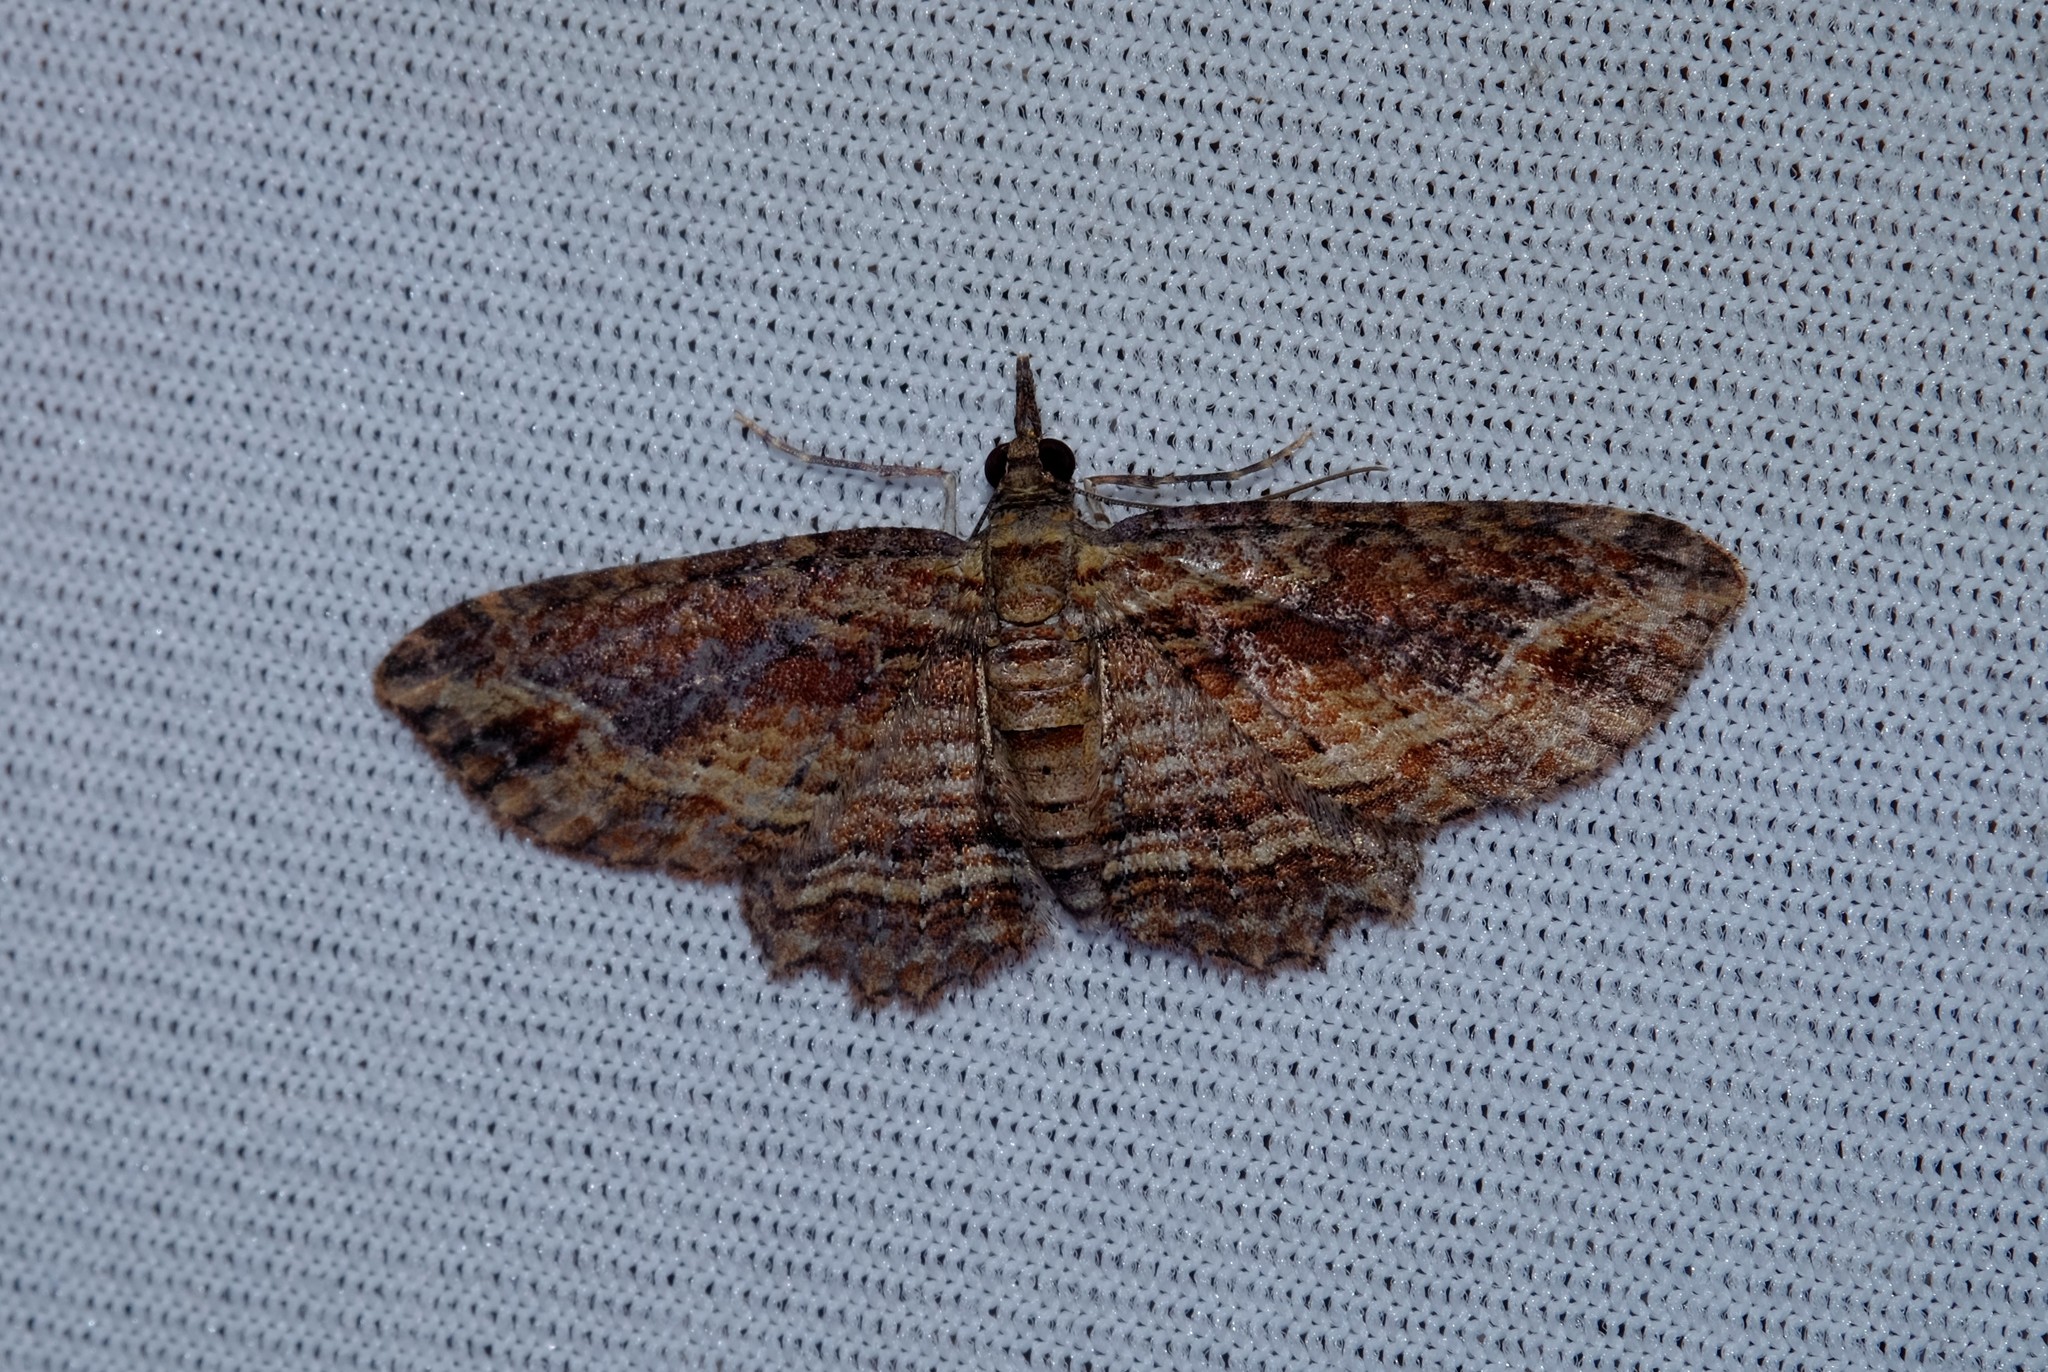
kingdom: Animalia
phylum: Arthropoda
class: Insecta
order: Lepidoptera
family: Geometridae
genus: Chloroclystis
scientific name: Chloroclystis filata
